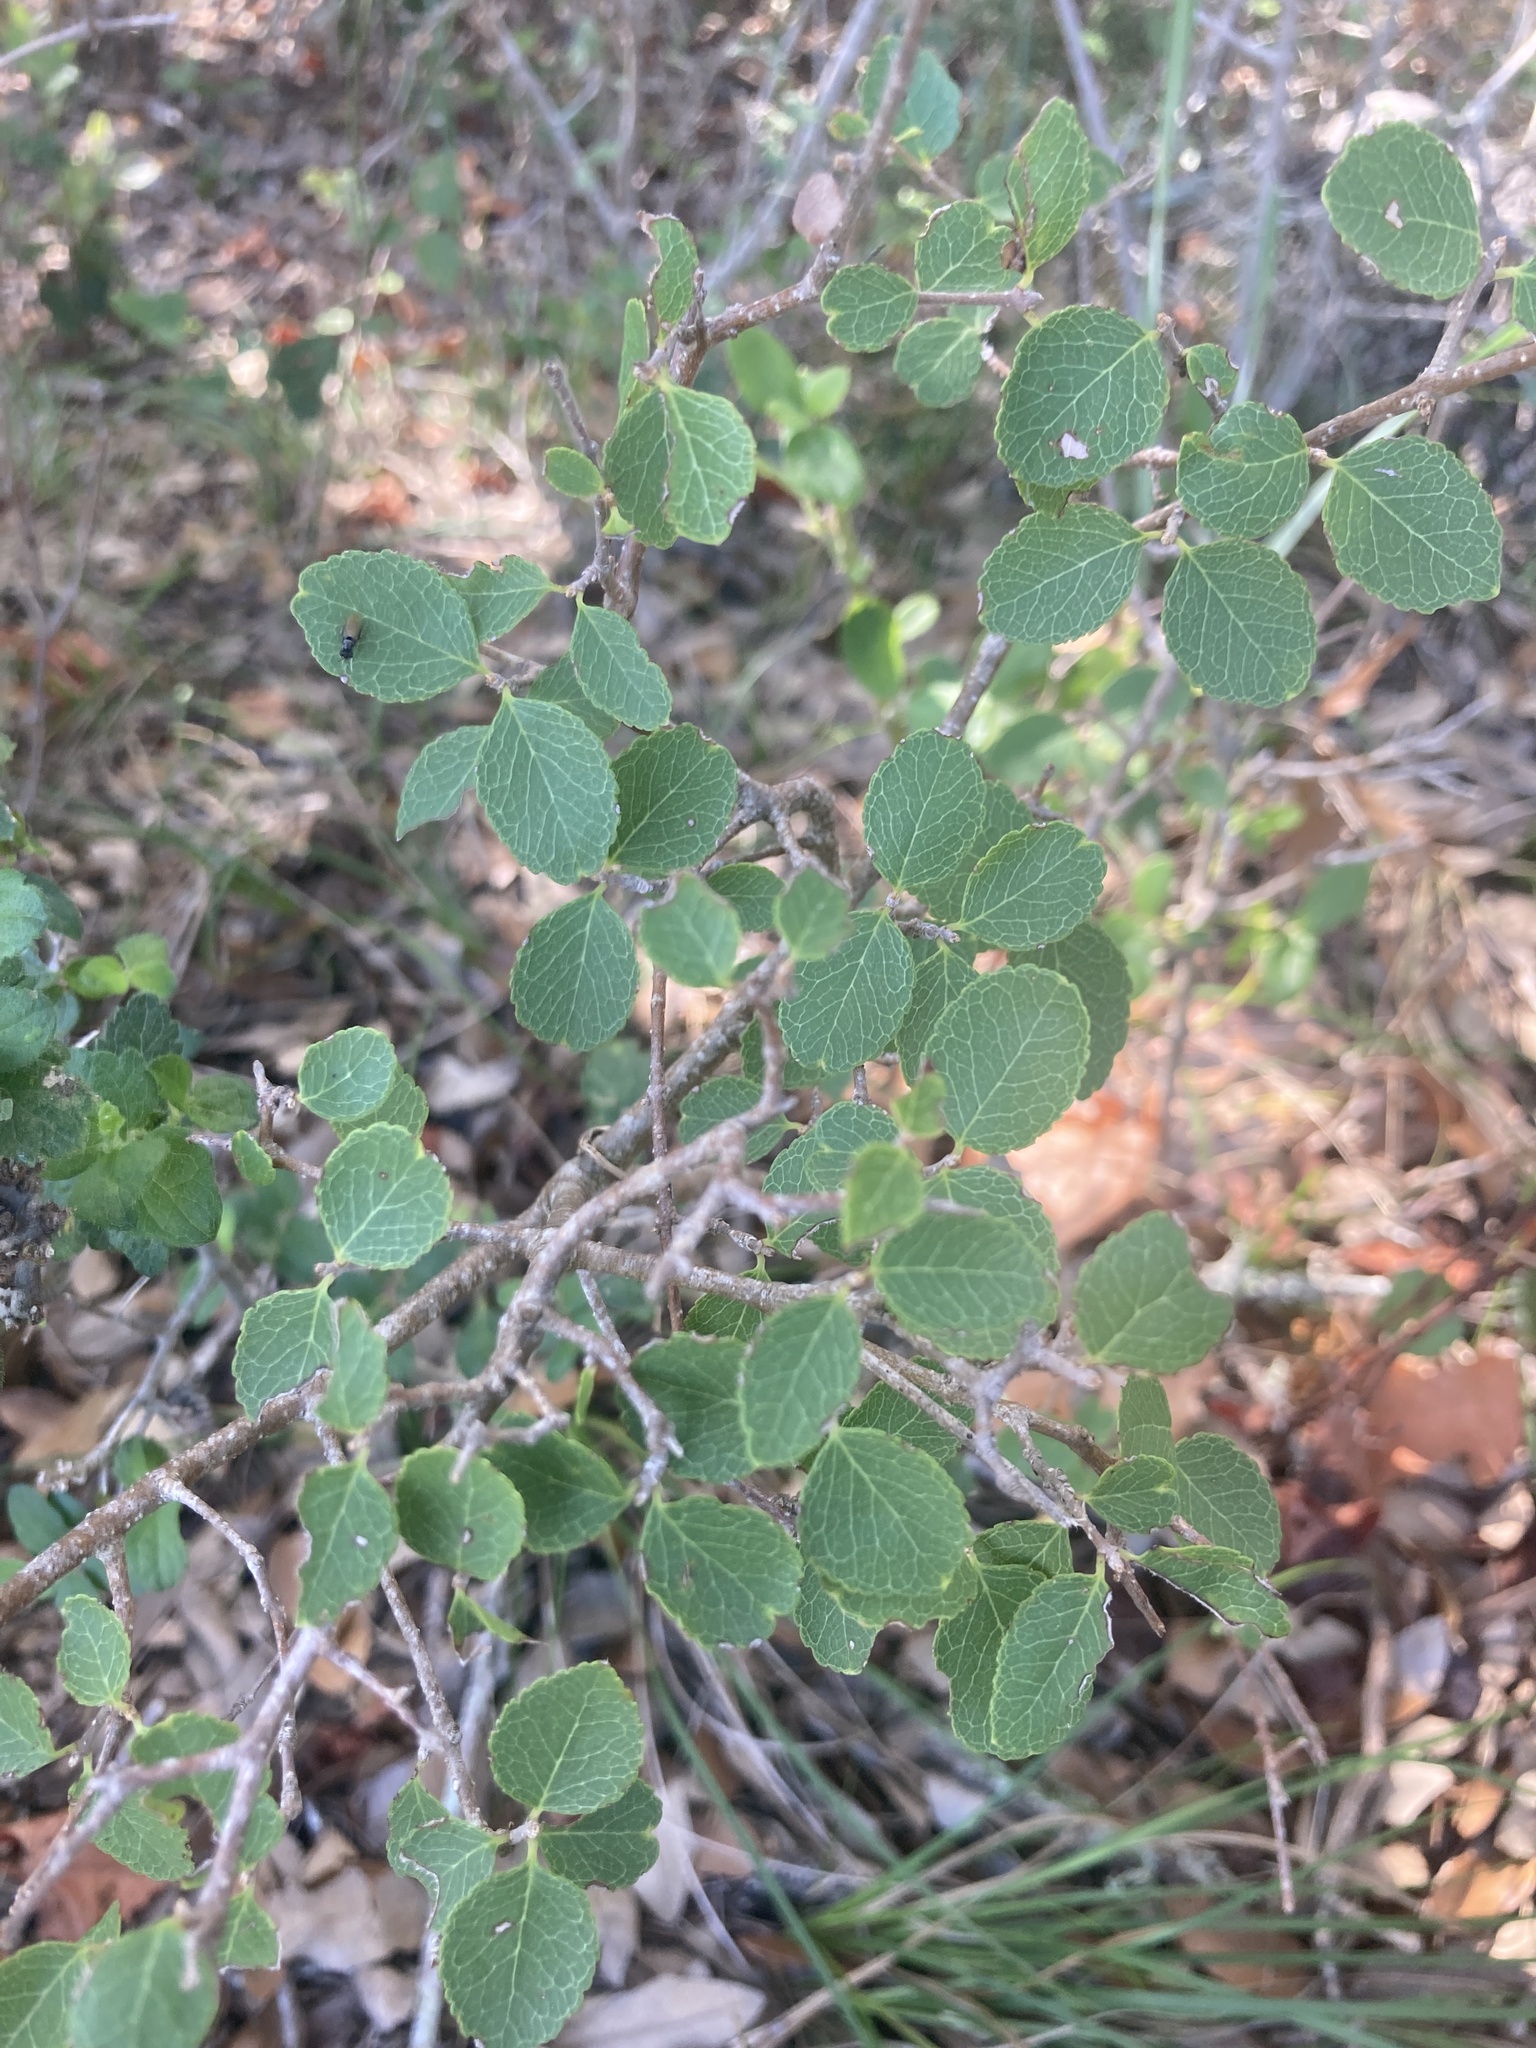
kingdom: Plantae
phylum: Tracheophyta
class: Magnoliopsida
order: Lamiales
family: Oleaceae
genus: Forestiera
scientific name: Forestiera reticulata
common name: Netleaf swamp-privet
